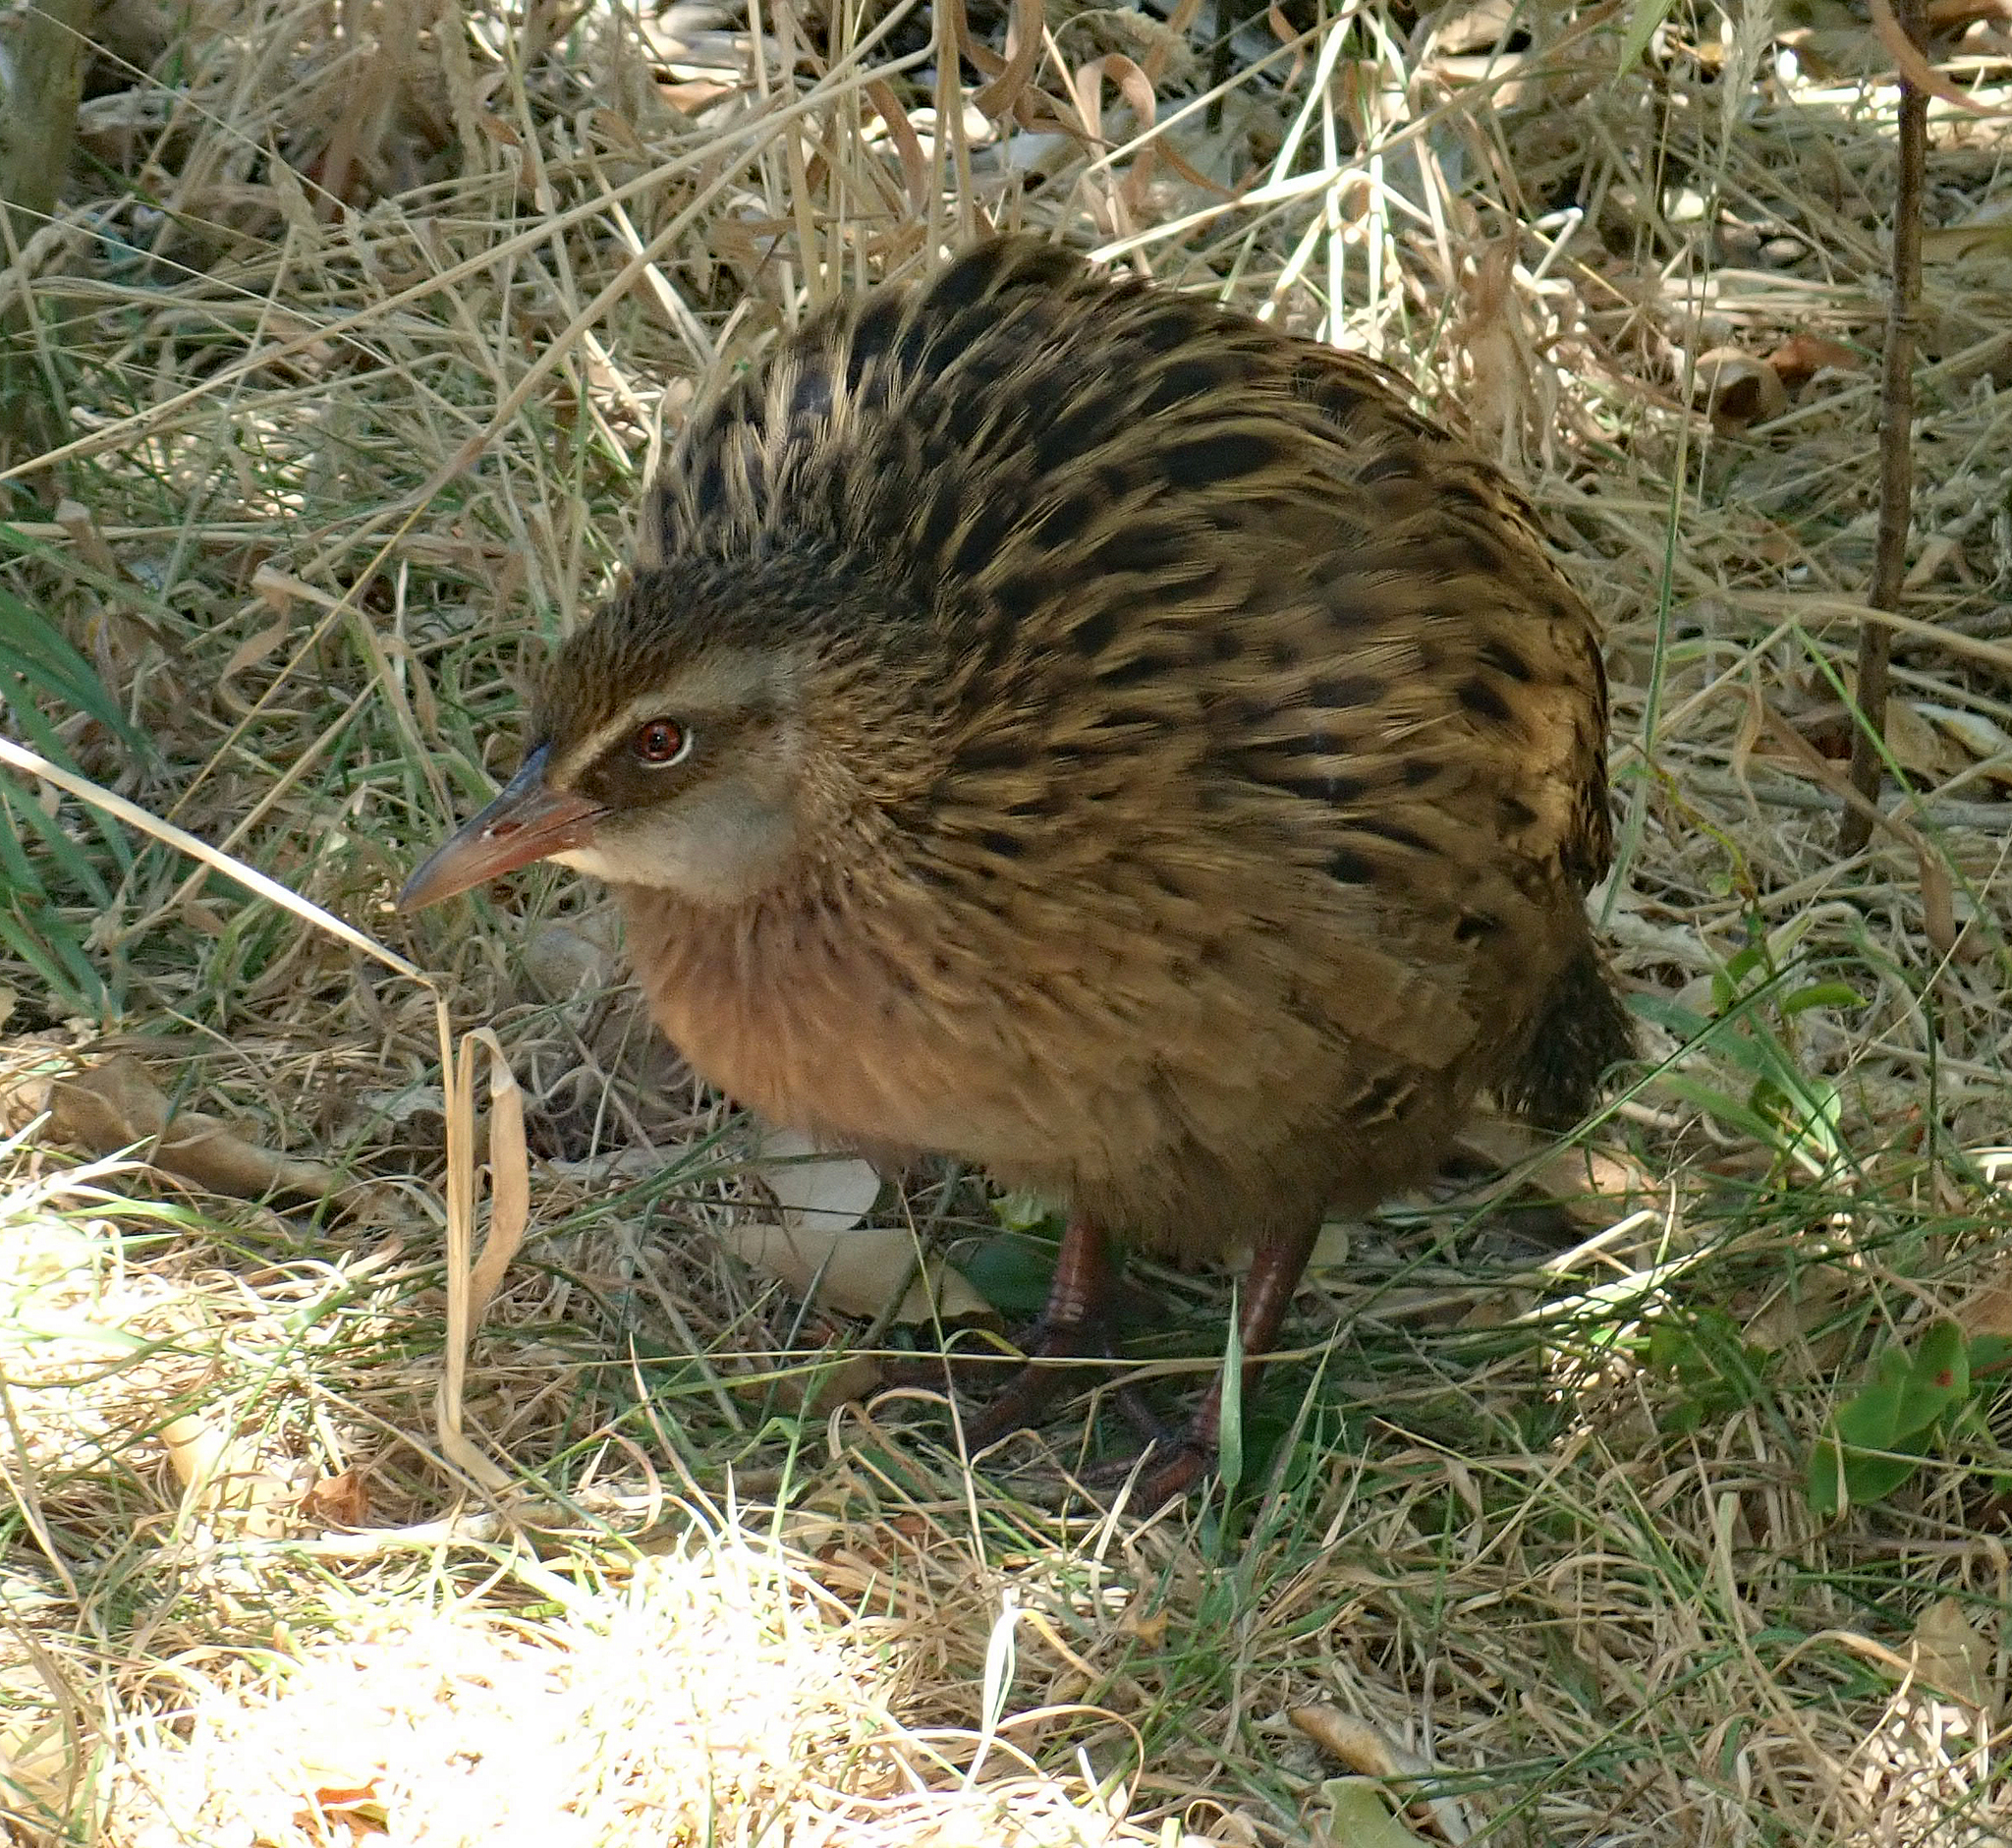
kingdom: Animalia
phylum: Chordata
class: Aves
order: Gruiformes
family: Rallidae
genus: Gallirallus
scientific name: Gallirallus australis
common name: Weka
